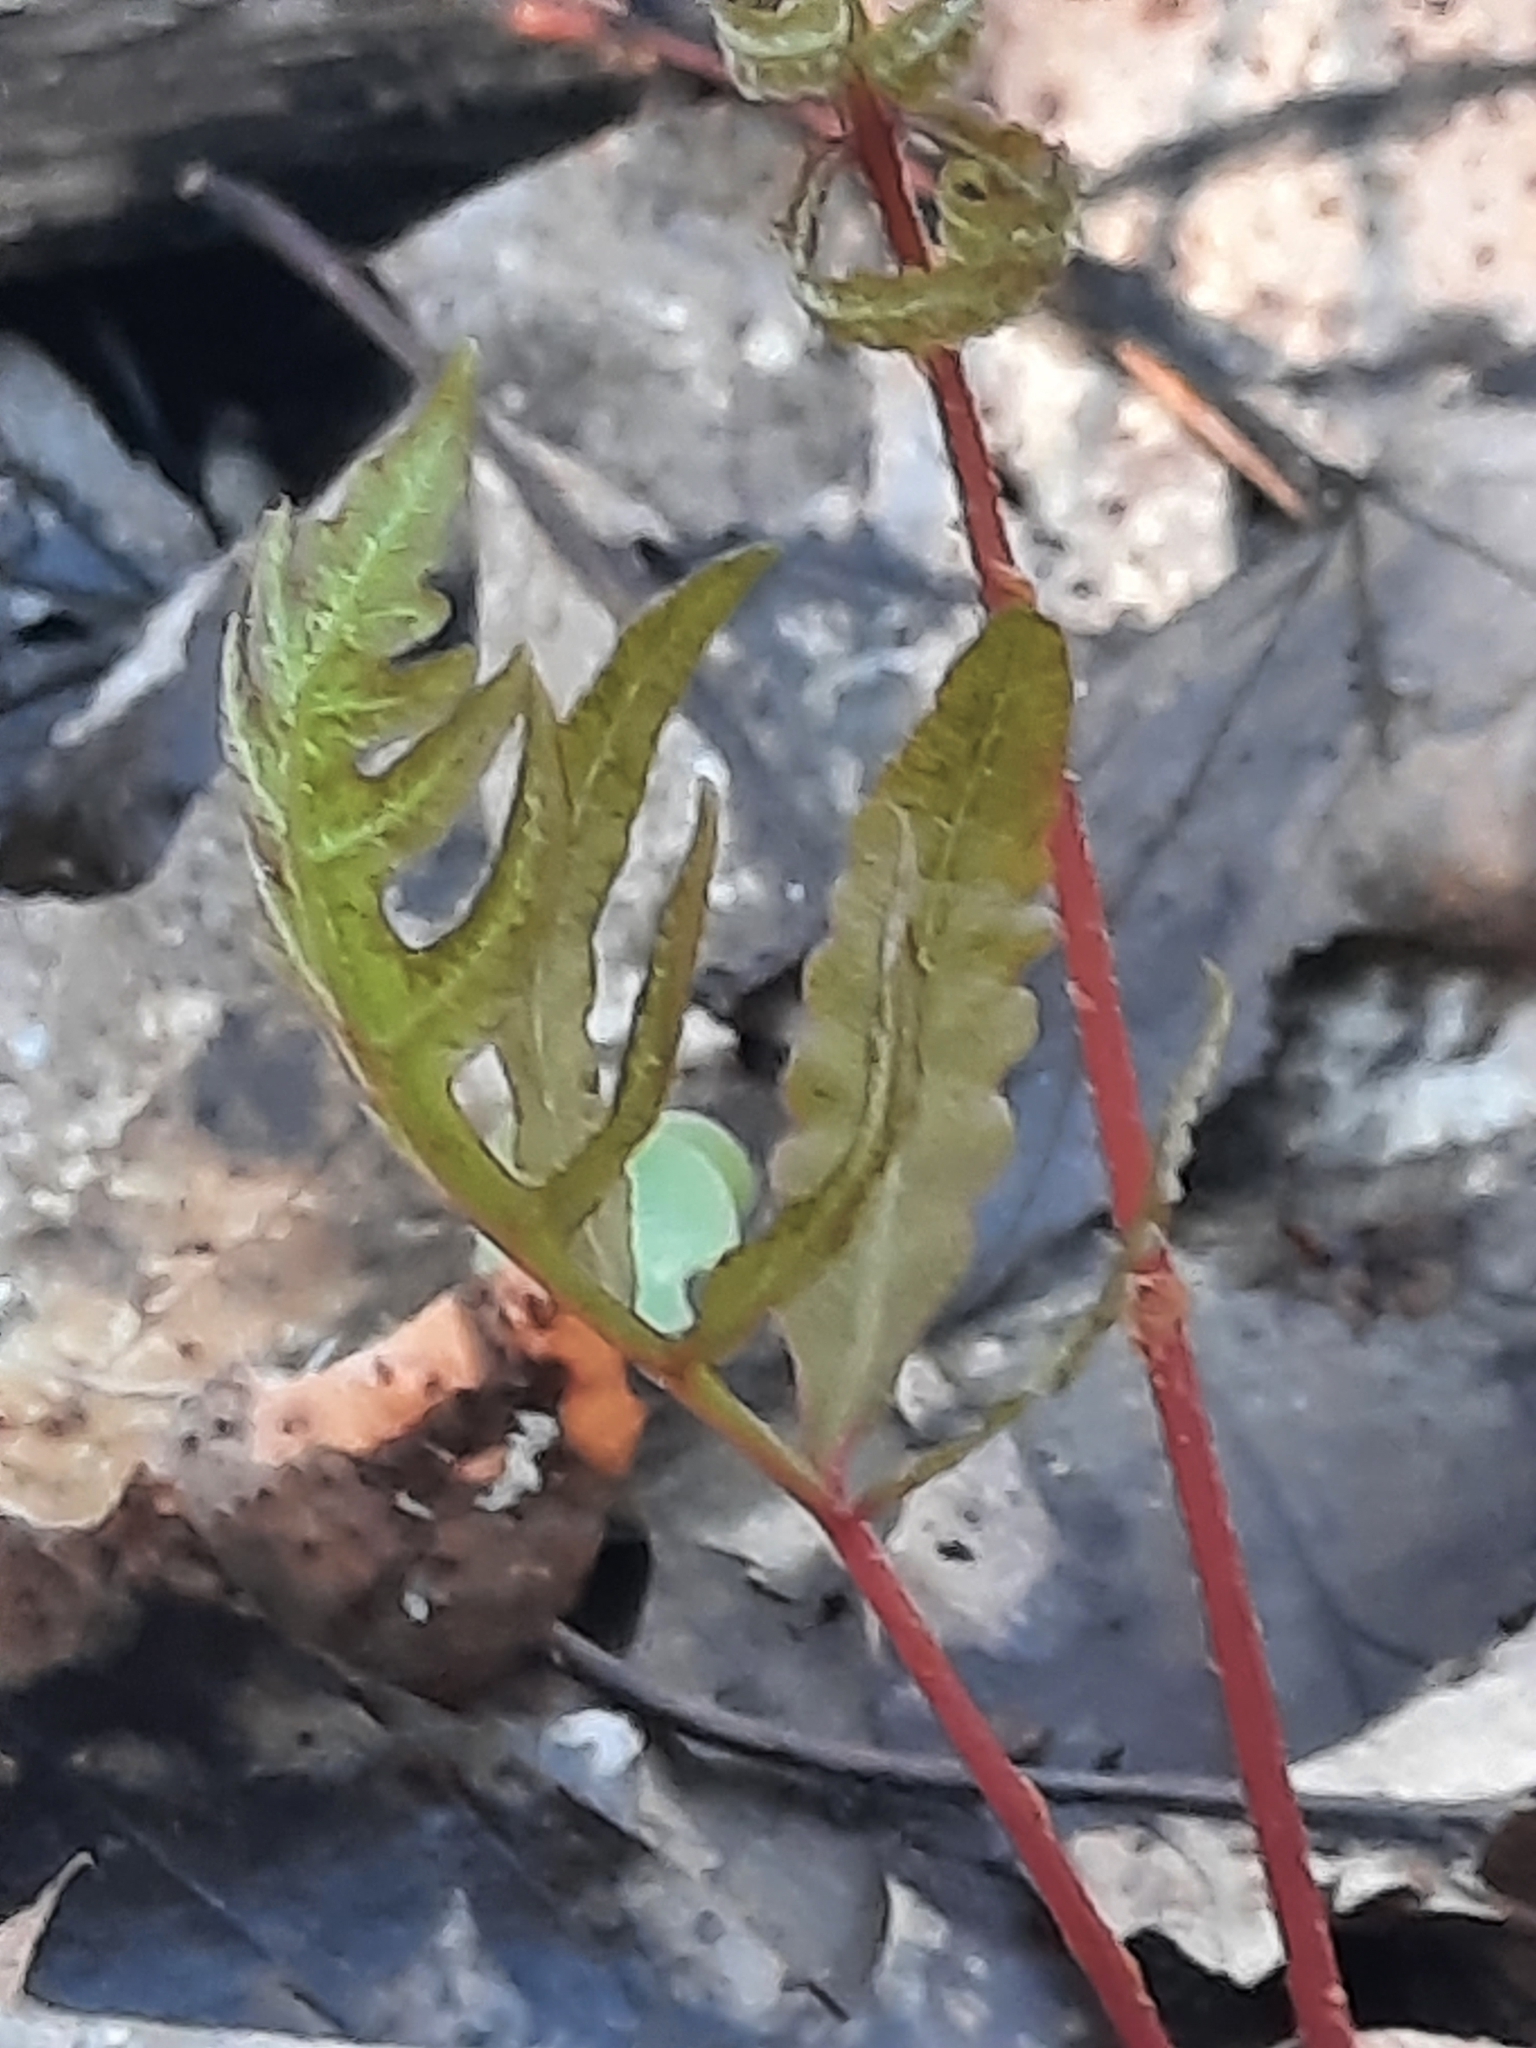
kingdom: Plantae
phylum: Tracheophyta
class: Polypodiopsida
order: Polypodiales
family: Onocleaceae
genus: Onoclea
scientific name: Onoclea sensibilis
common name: Sensitive fern
